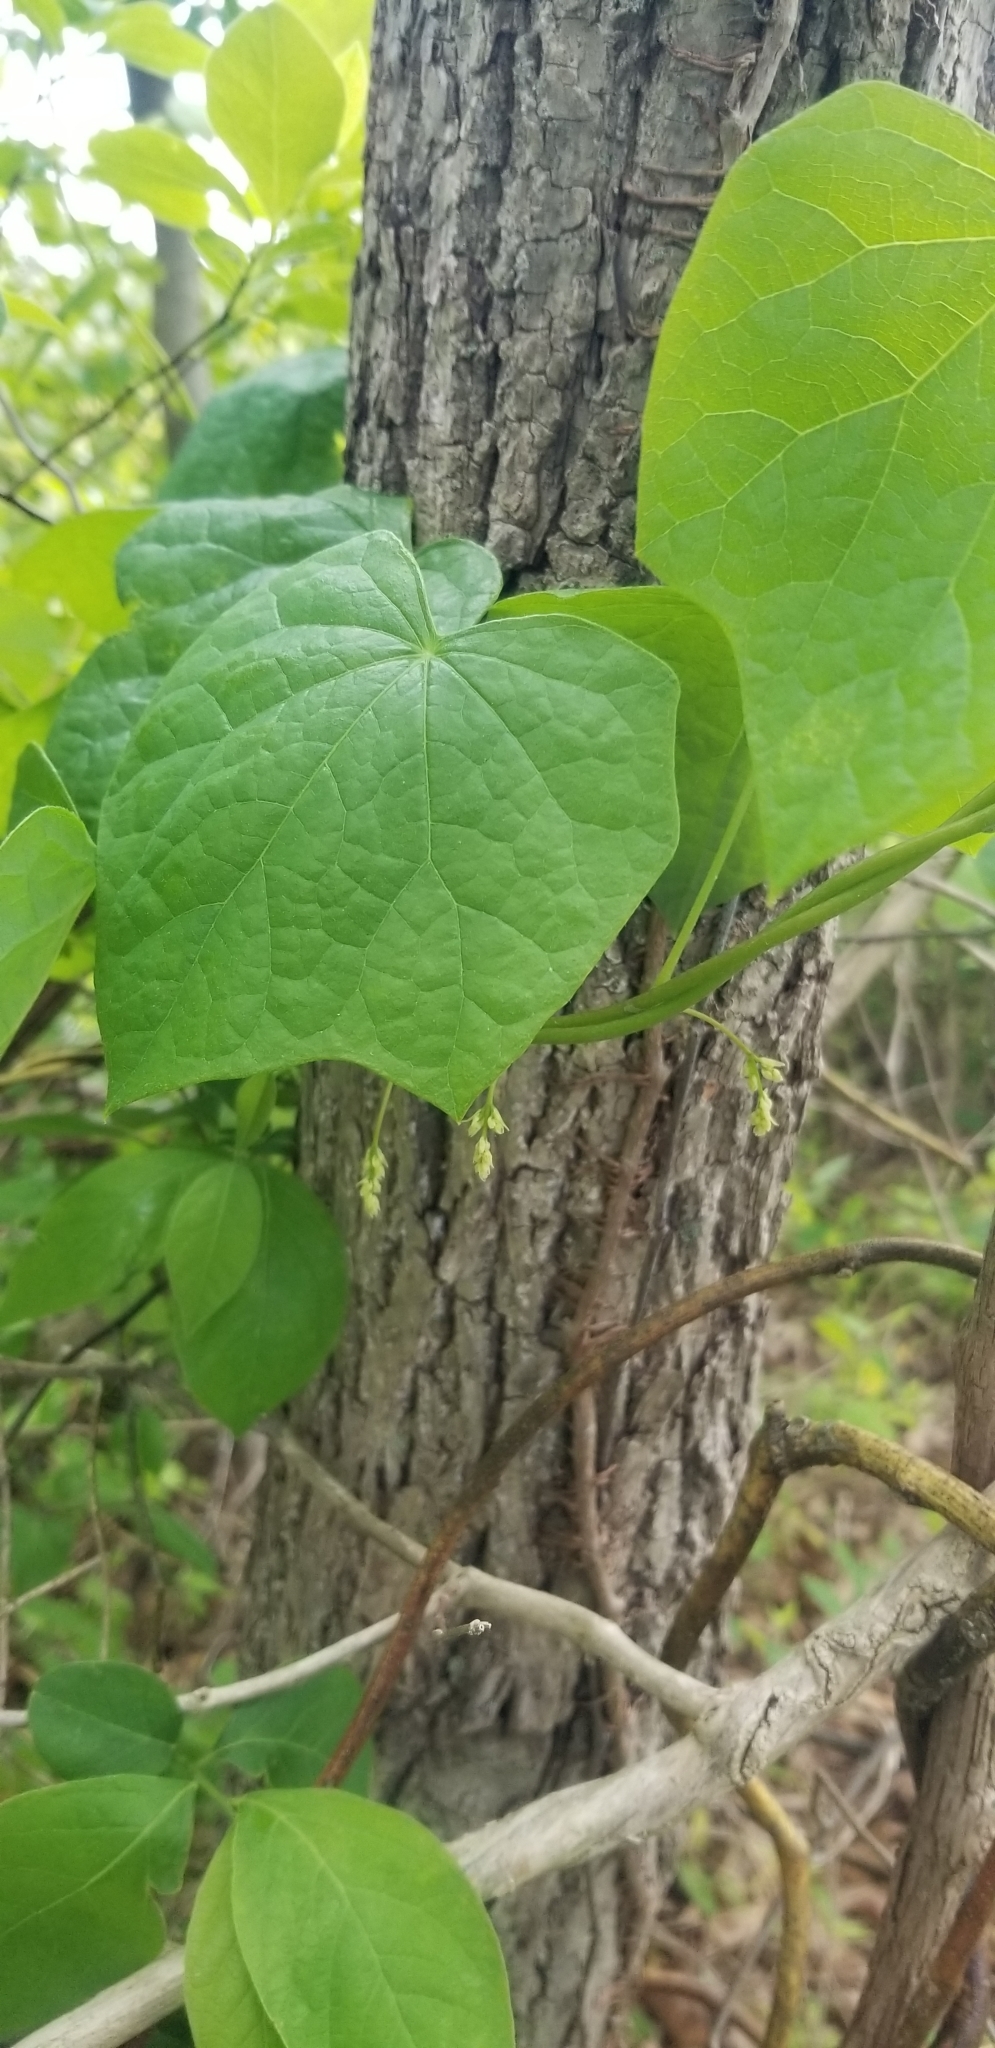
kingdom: Plantae
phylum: Tracheophyta
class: Magnoliopsida
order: Ranunculales
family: Menispermaceae
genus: Menispermum
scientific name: Menispermum canadense
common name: Moonseed
